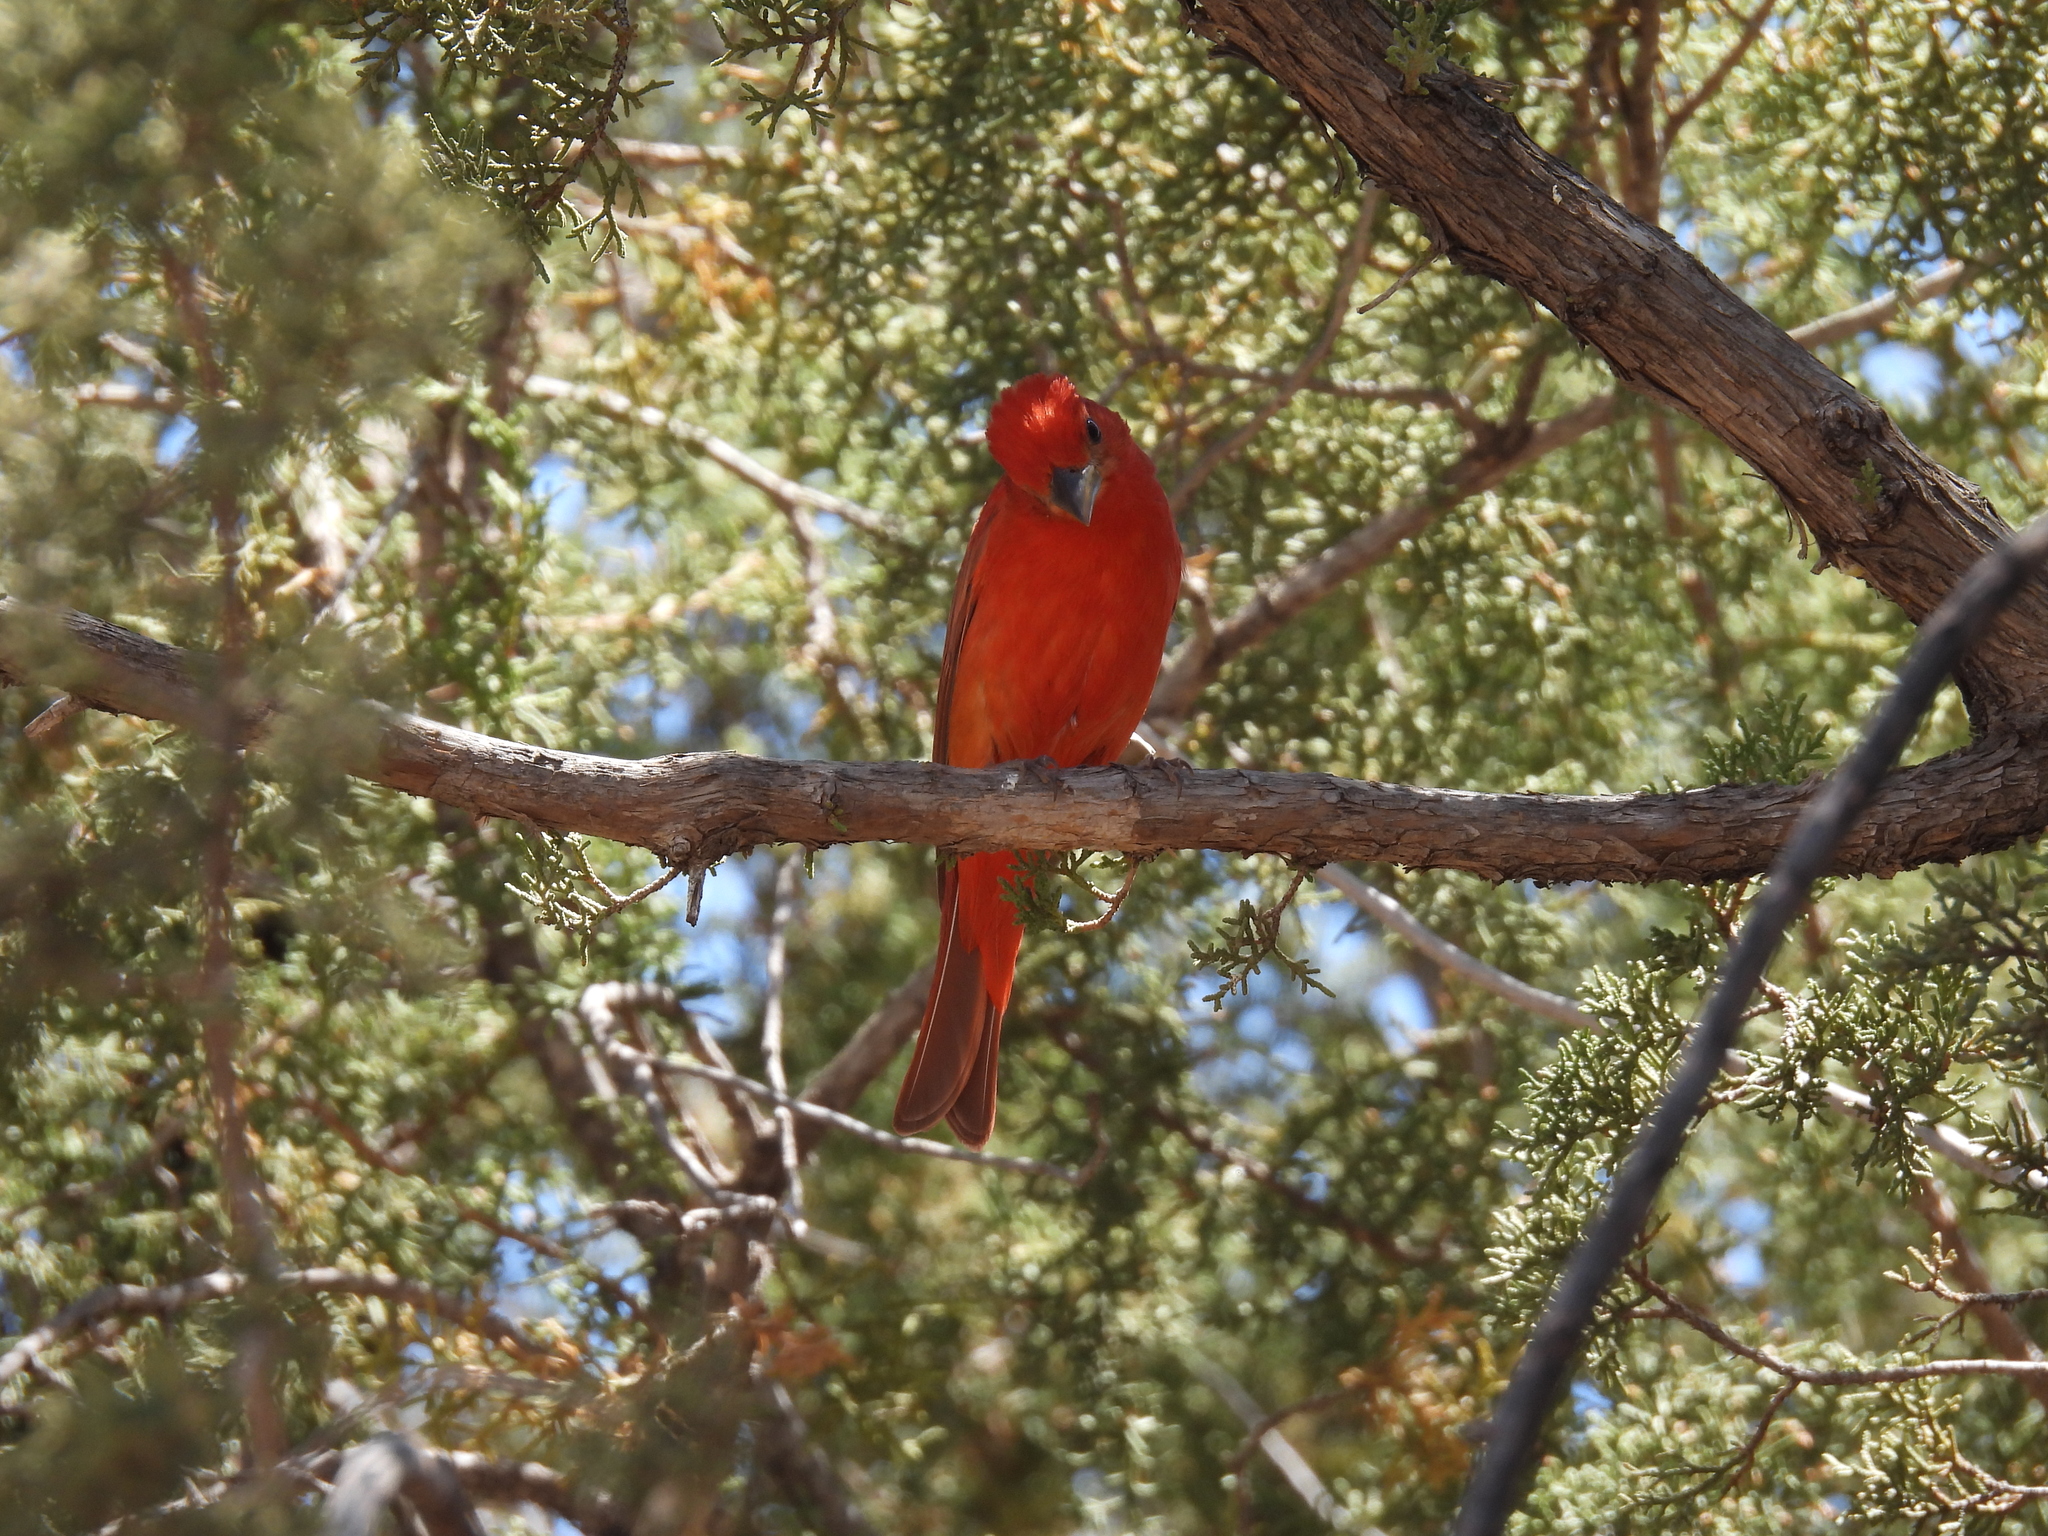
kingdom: Animalia
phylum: Chordata
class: Aves
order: Passeriformes
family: Cardinalidae
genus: Piranga
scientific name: Piranga rubra
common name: Summer tanager
